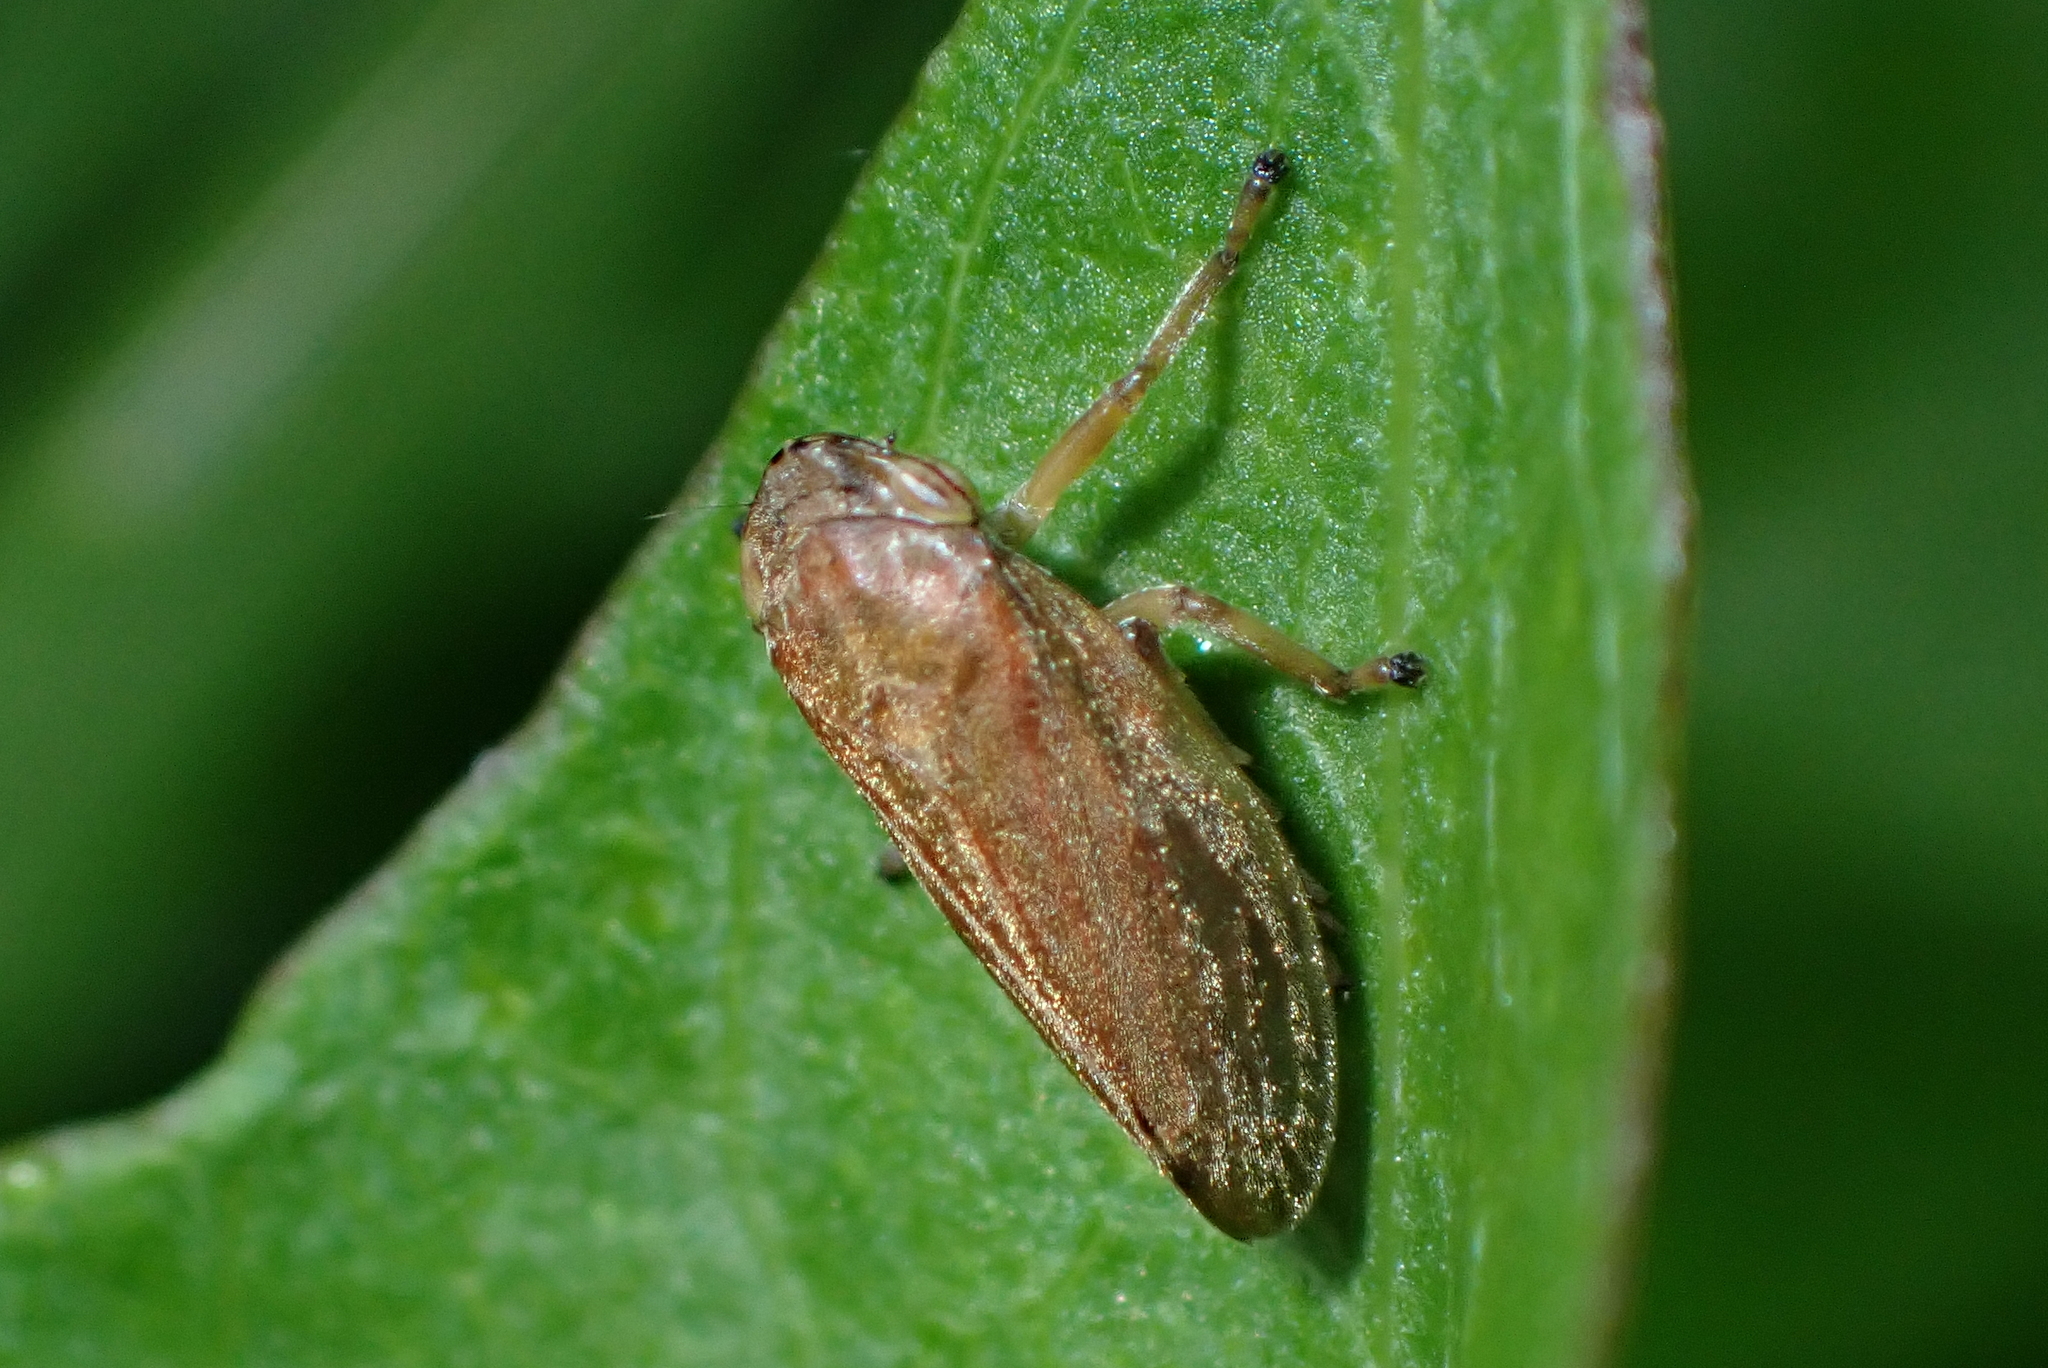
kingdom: Animalia
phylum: Arthropoda
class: Insecta
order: Hemiptera
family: Aphrophoridae
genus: Philaenus
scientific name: Philaenus spumarius
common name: Meadow spittlebug
